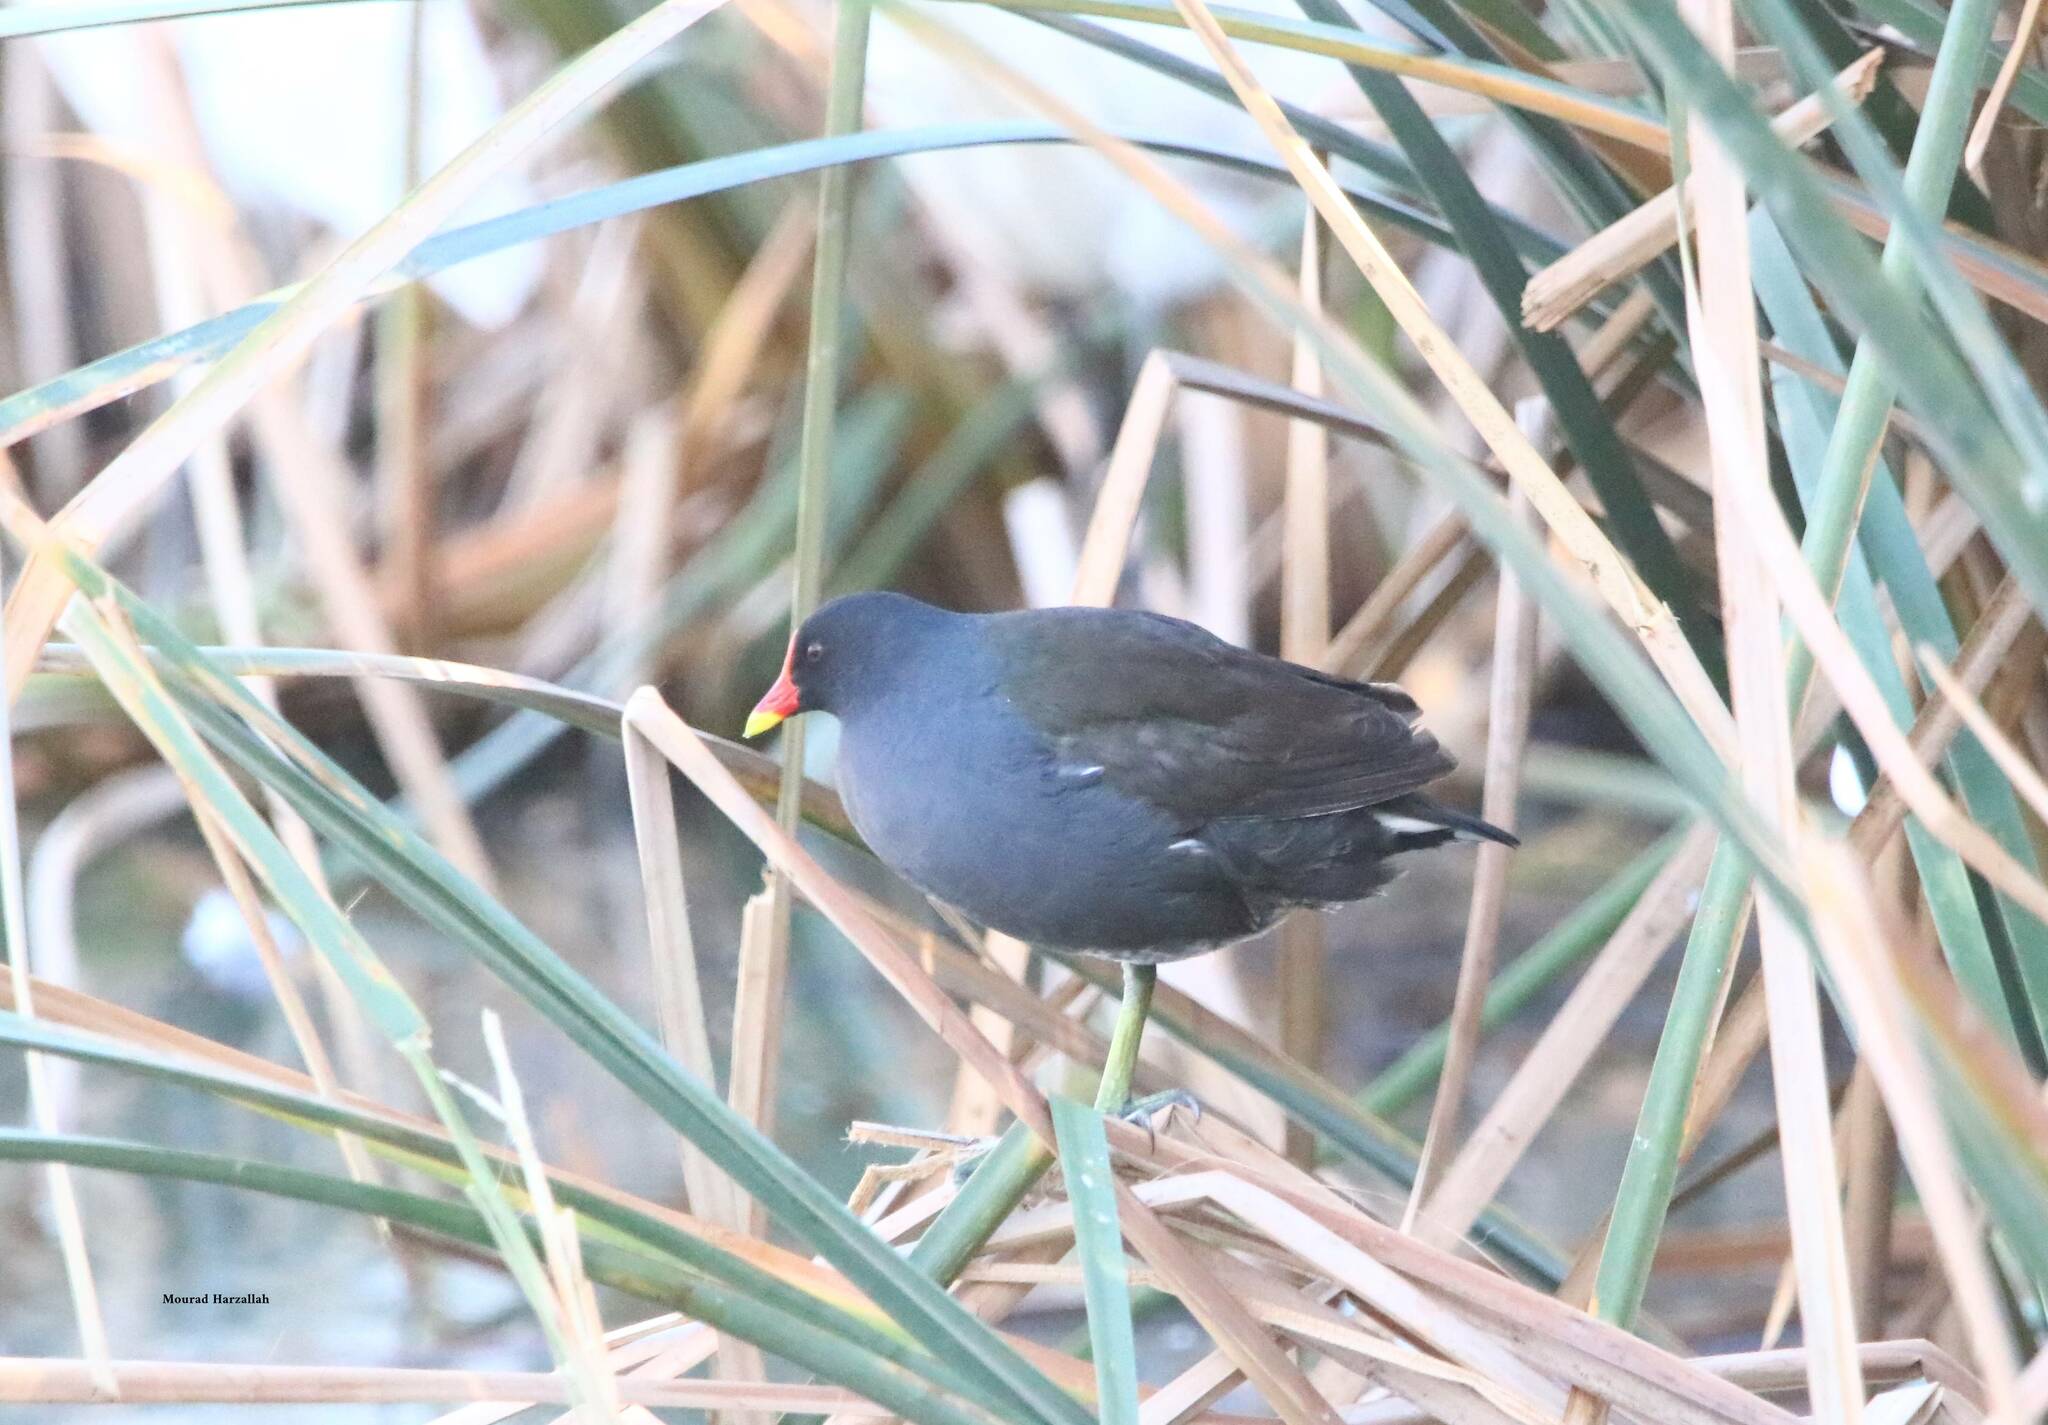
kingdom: Animalia
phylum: Chordata
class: Aves
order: Gruiformes
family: Rallidae
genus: Gallinula
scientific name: Gallinula chloropus
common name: Common moorhen
